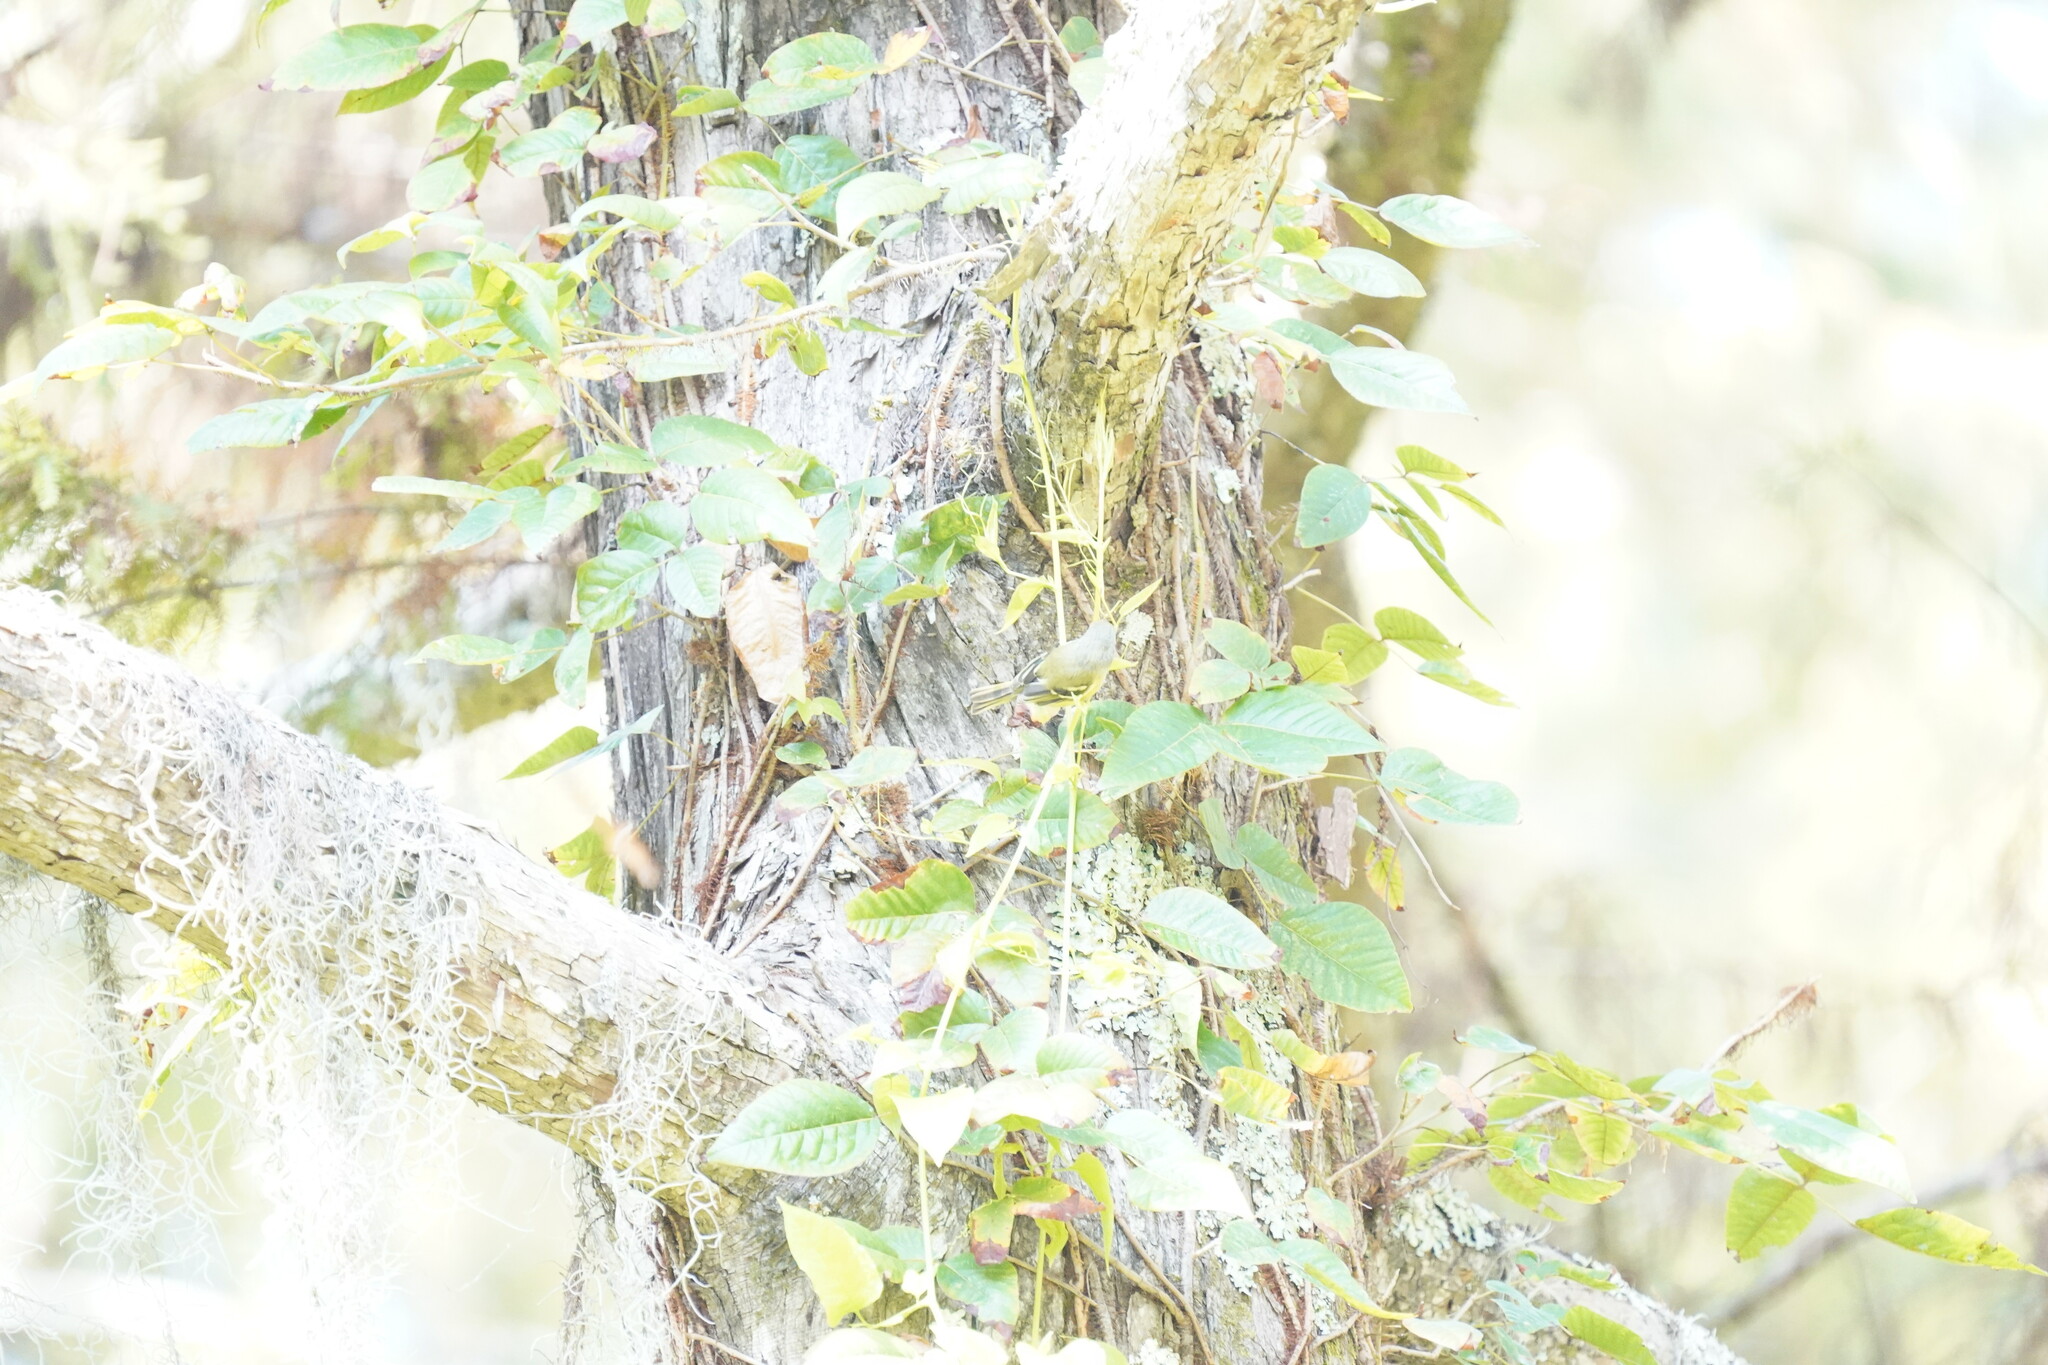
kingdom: Animalia
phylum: Chordata
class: Aves
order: Passeriformes
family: Vireonidae
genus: Vireo
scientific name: Vireo griseus
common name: White-eyed vireo
